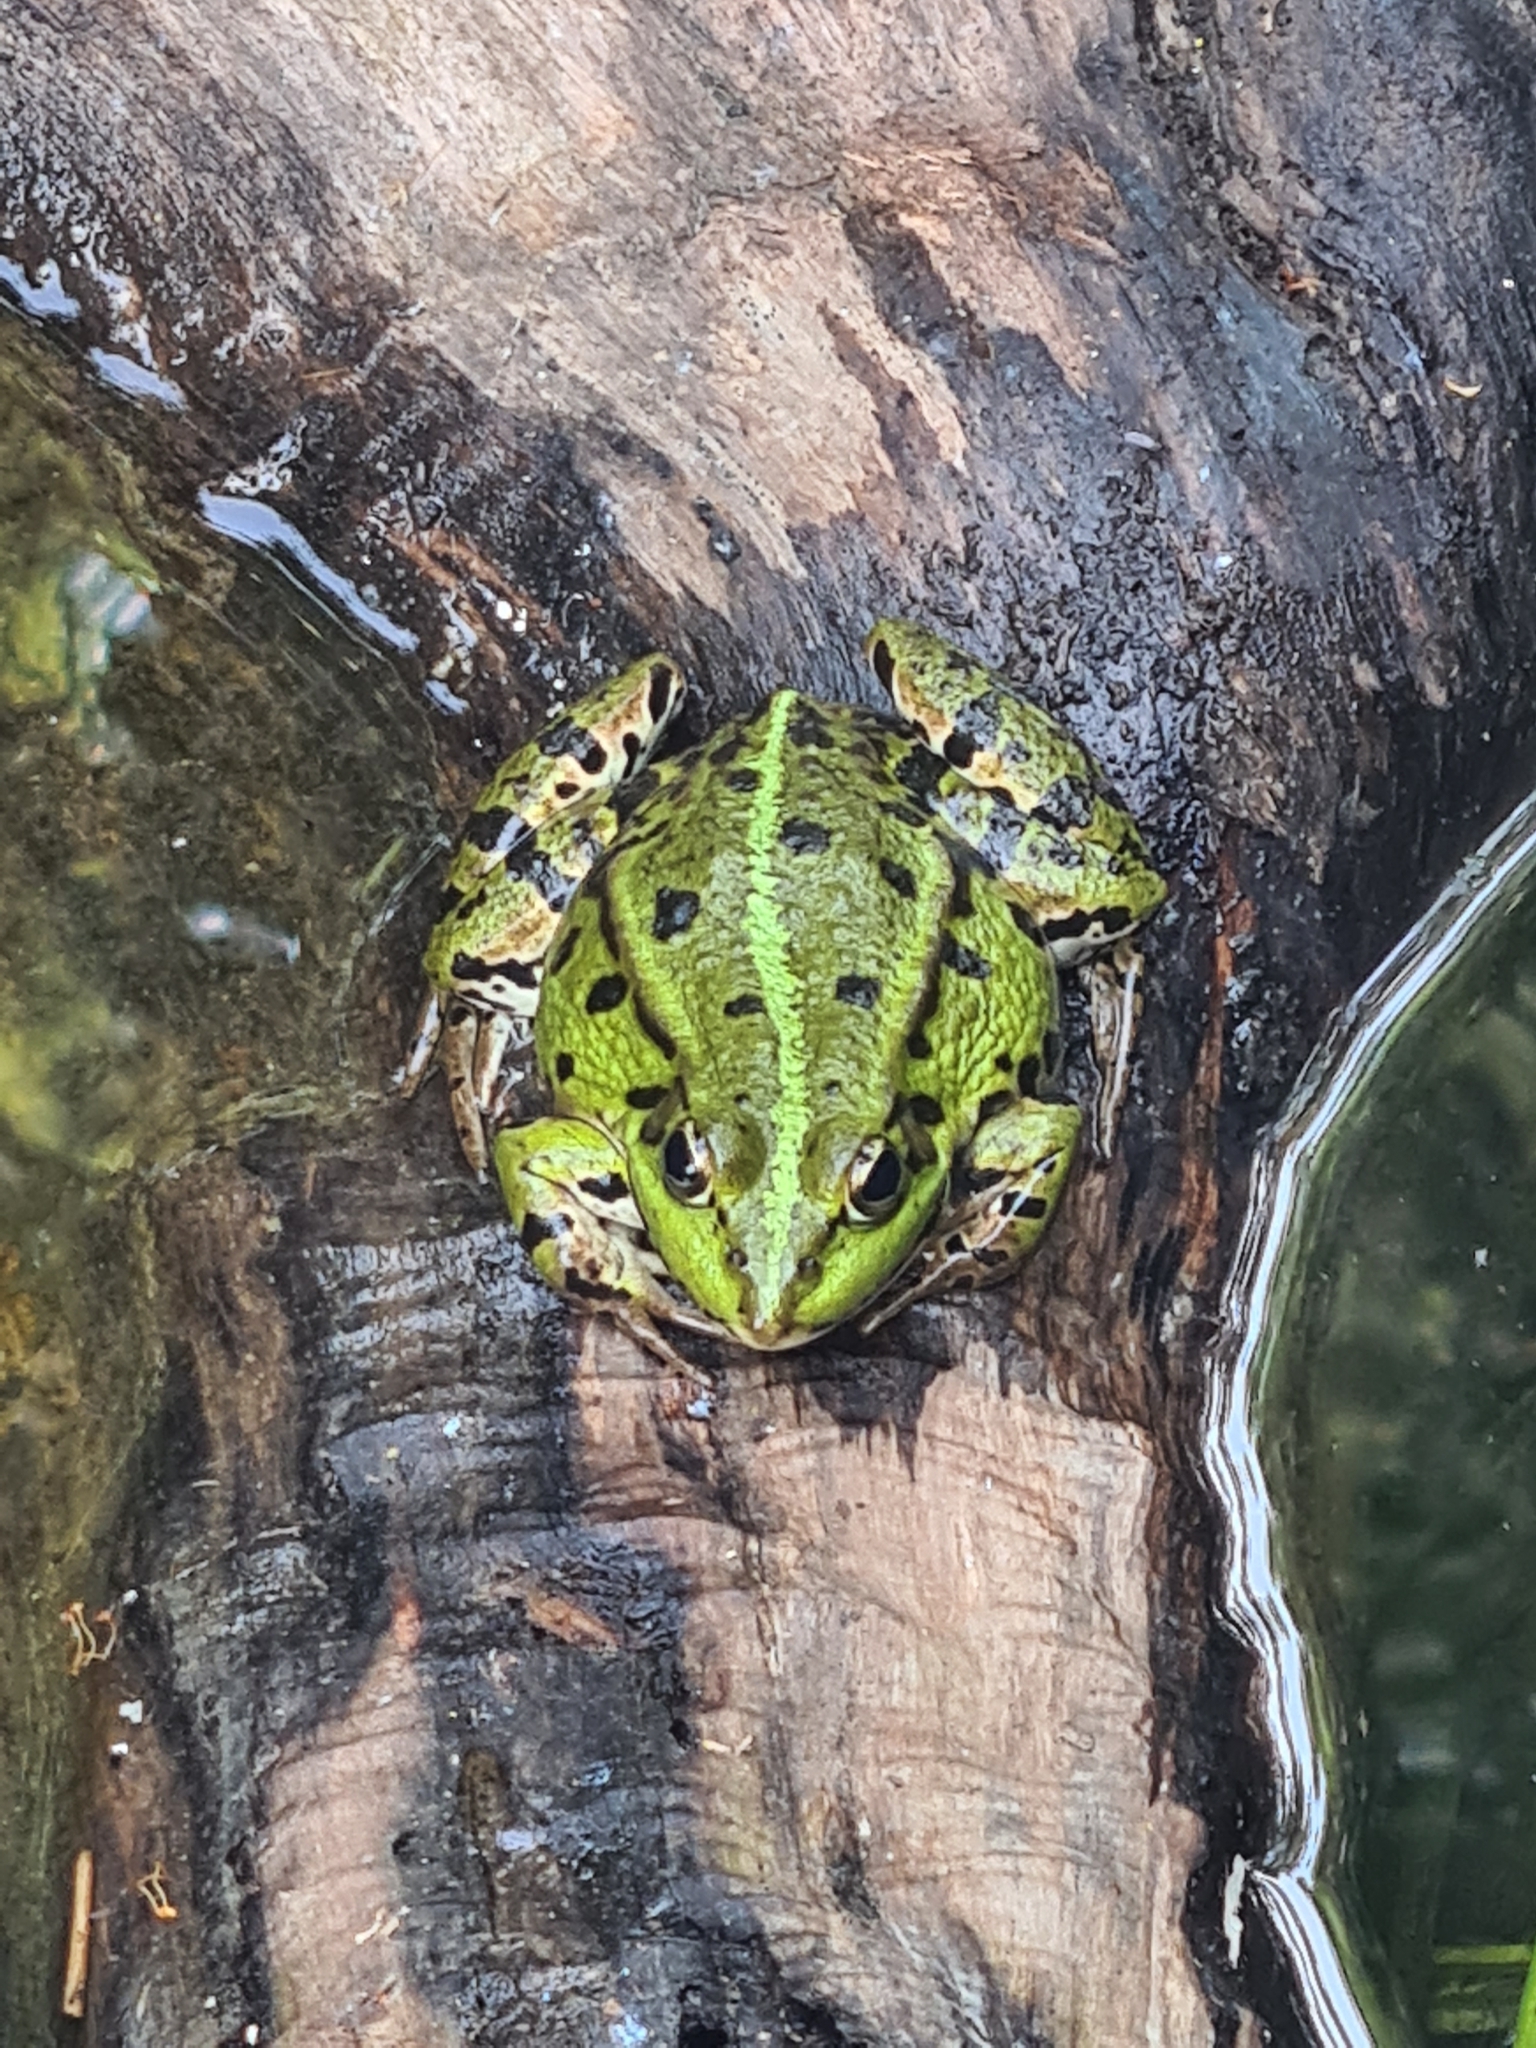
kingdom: Animalia
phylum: Chordata
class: Amphibia
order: Anura
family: Ranidae
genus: Pelophylax
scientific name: Pelophylax
